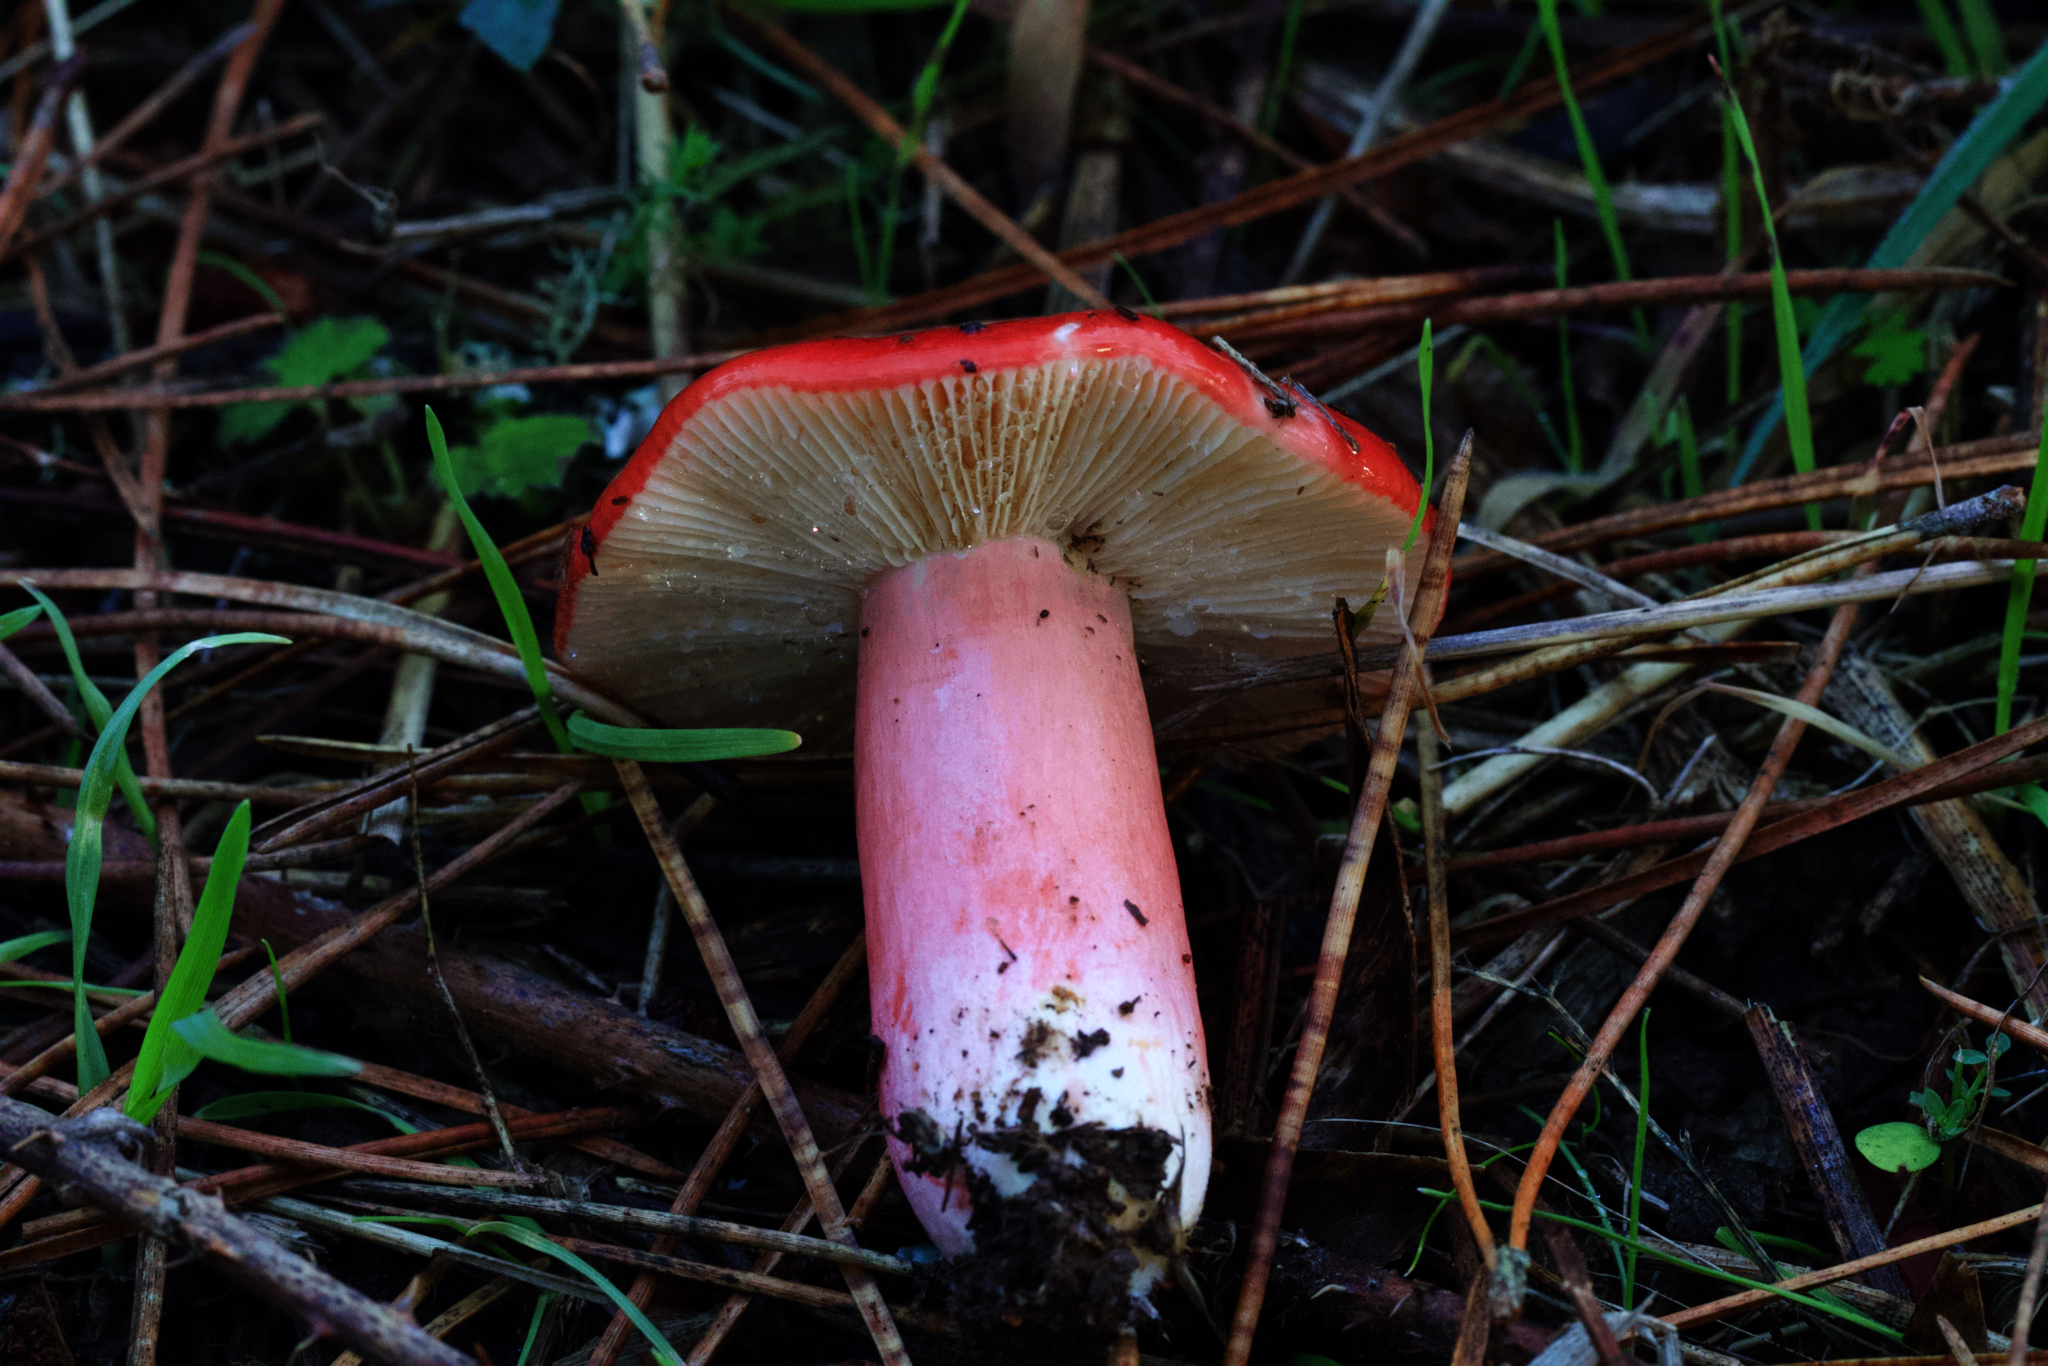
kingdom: Fungi
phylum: Basidiomycota
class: Agaricomycetes
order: Russulales
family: Russulaceae
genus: Russula
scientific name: Russula rhodocephala
